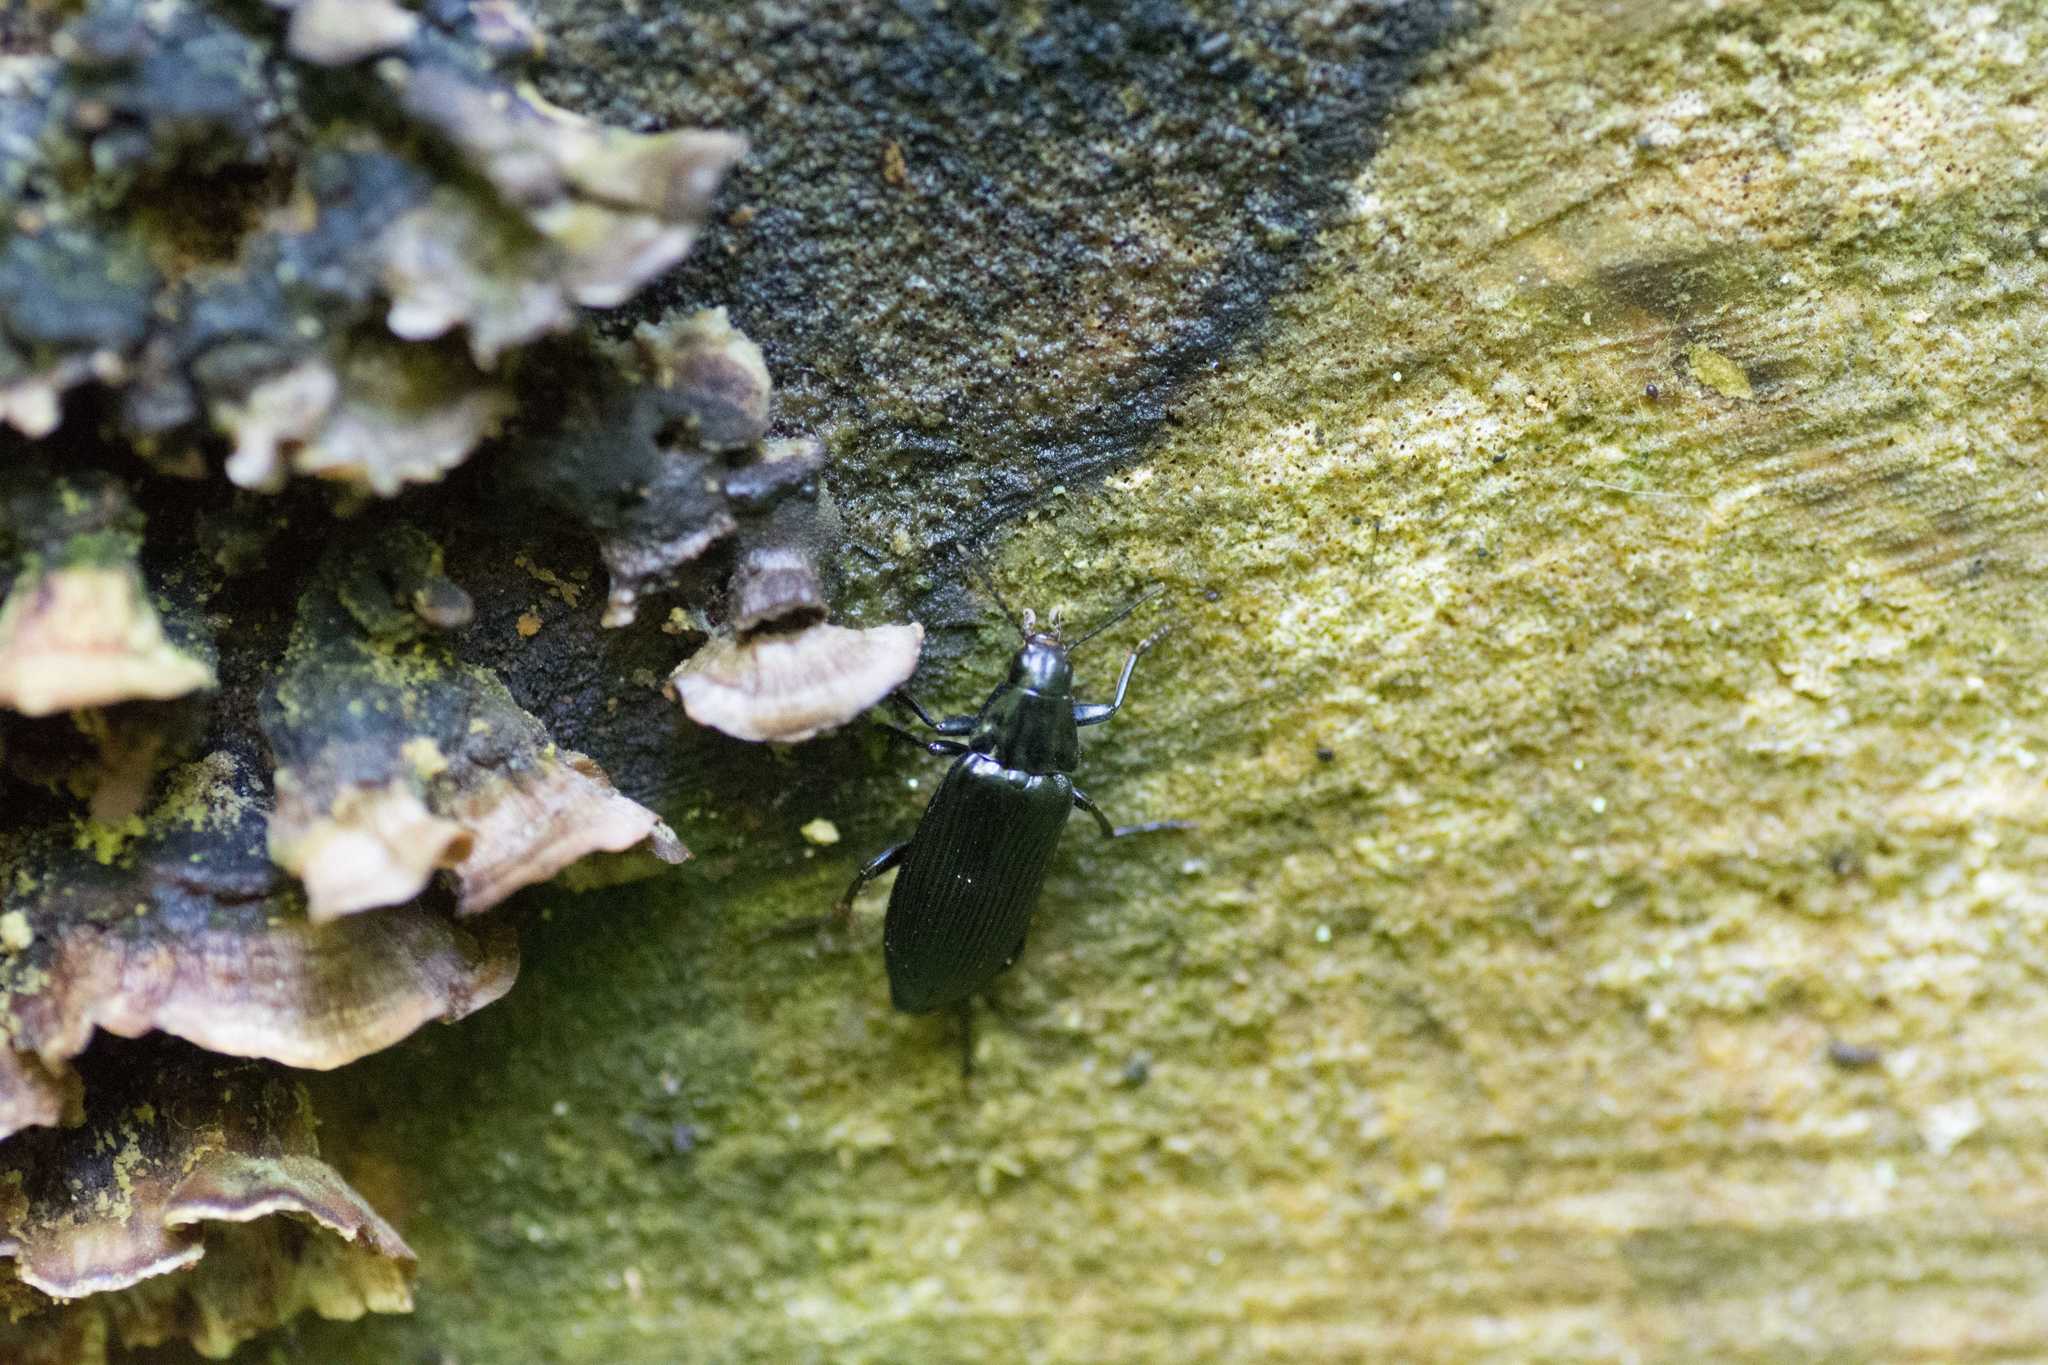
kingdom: Animalia
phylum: Arthropoda
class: Insecta
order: Coleoptera
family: Melandryidae
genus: Melandrya
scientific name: Melandrya striata
